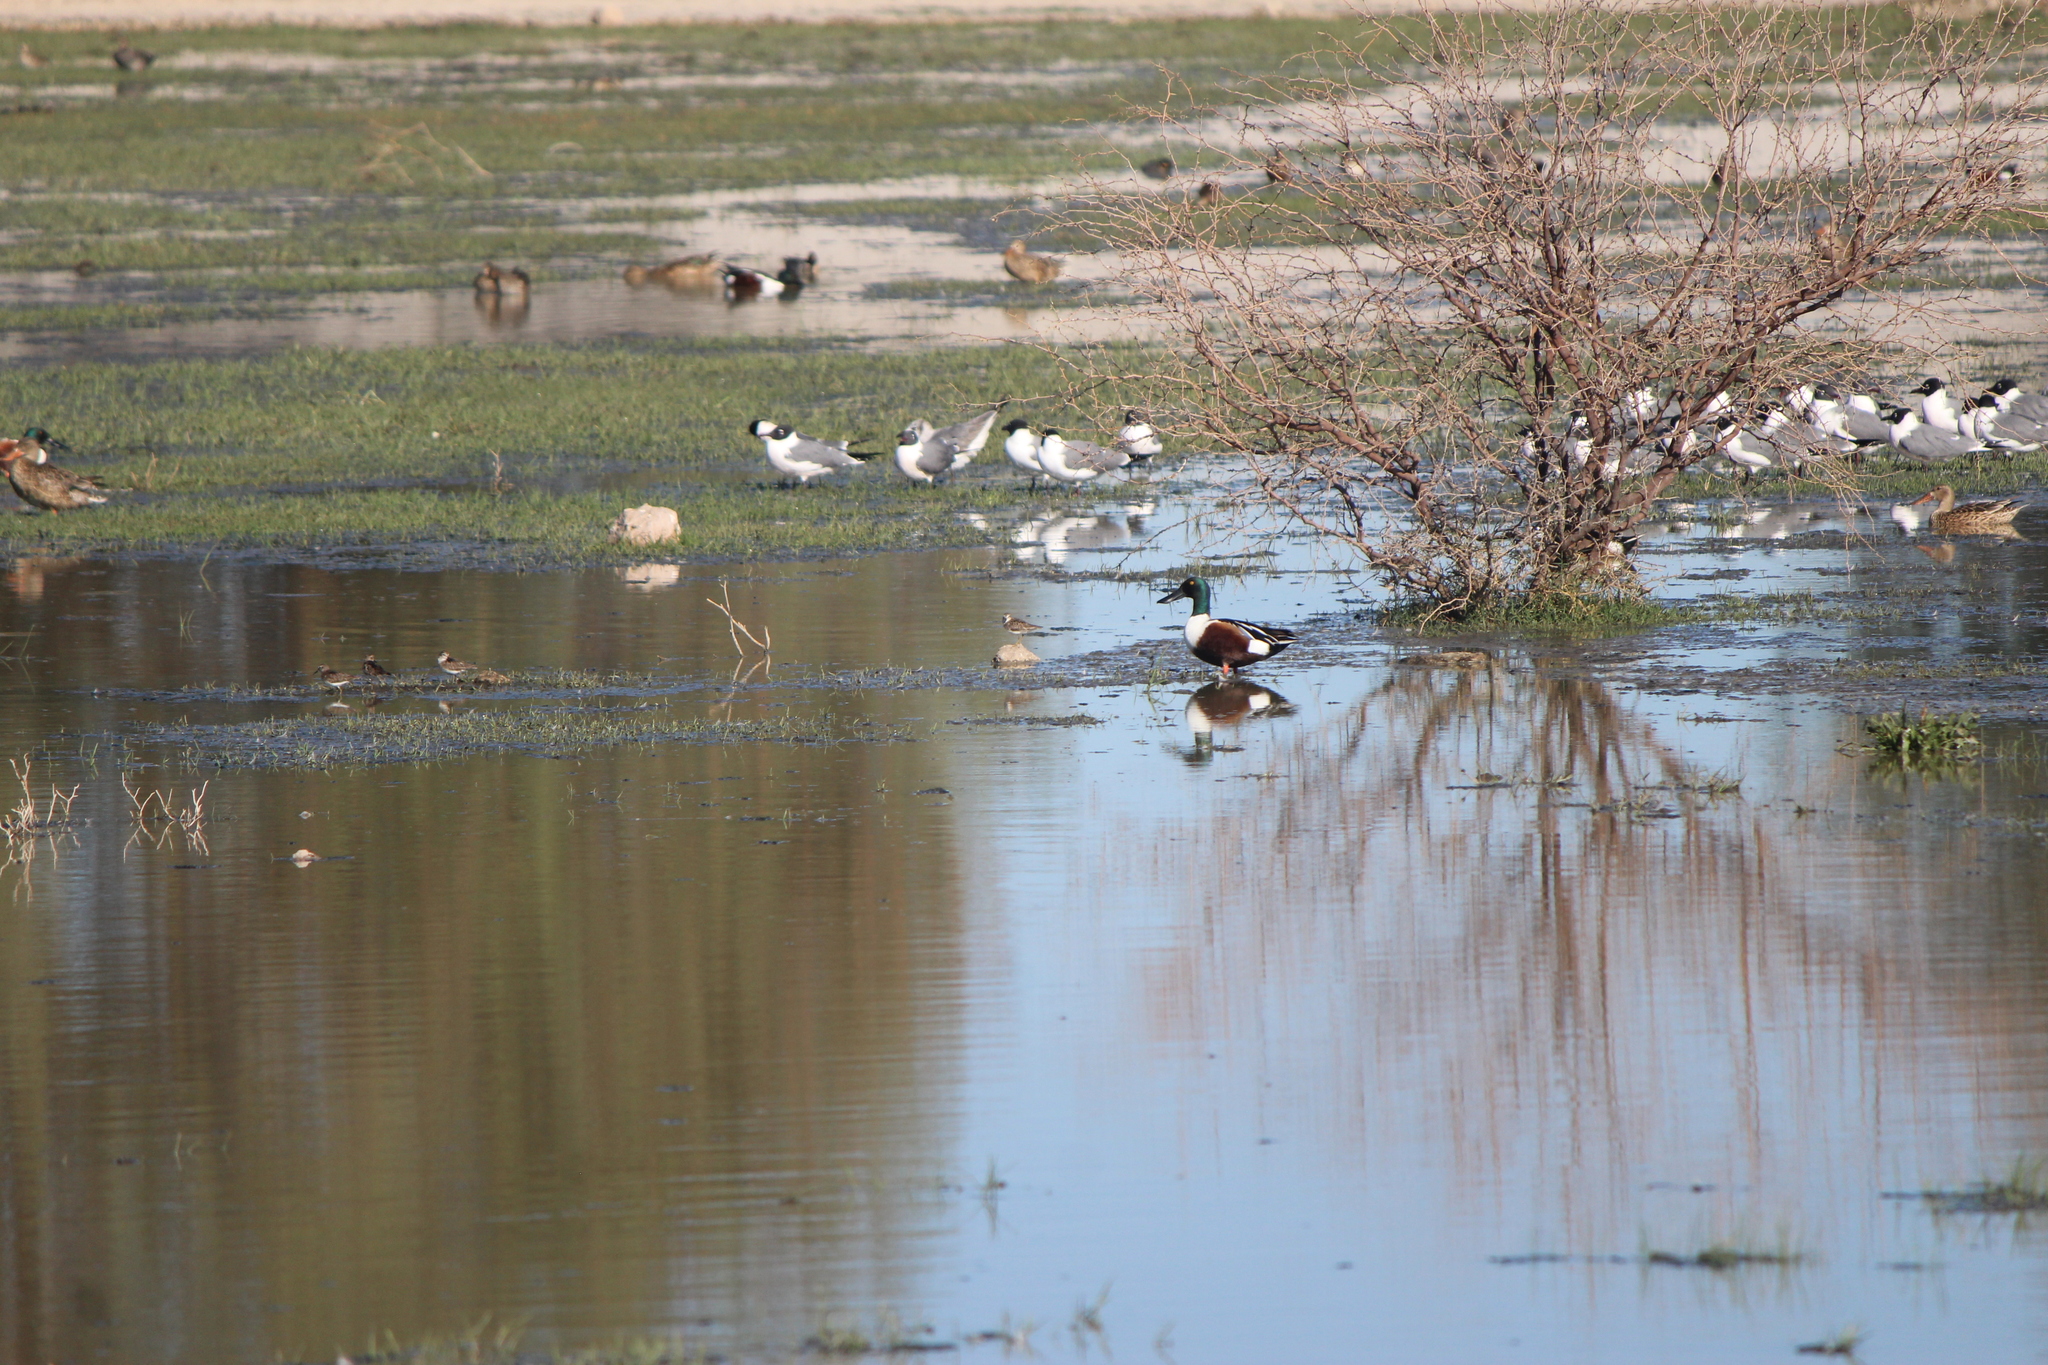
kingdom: Animalia
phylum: Chordata
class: Aves
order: Charadriiformes
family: Scolopacidae
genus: Calidris
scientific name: Calidris minutilla
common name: Least sandpiper
